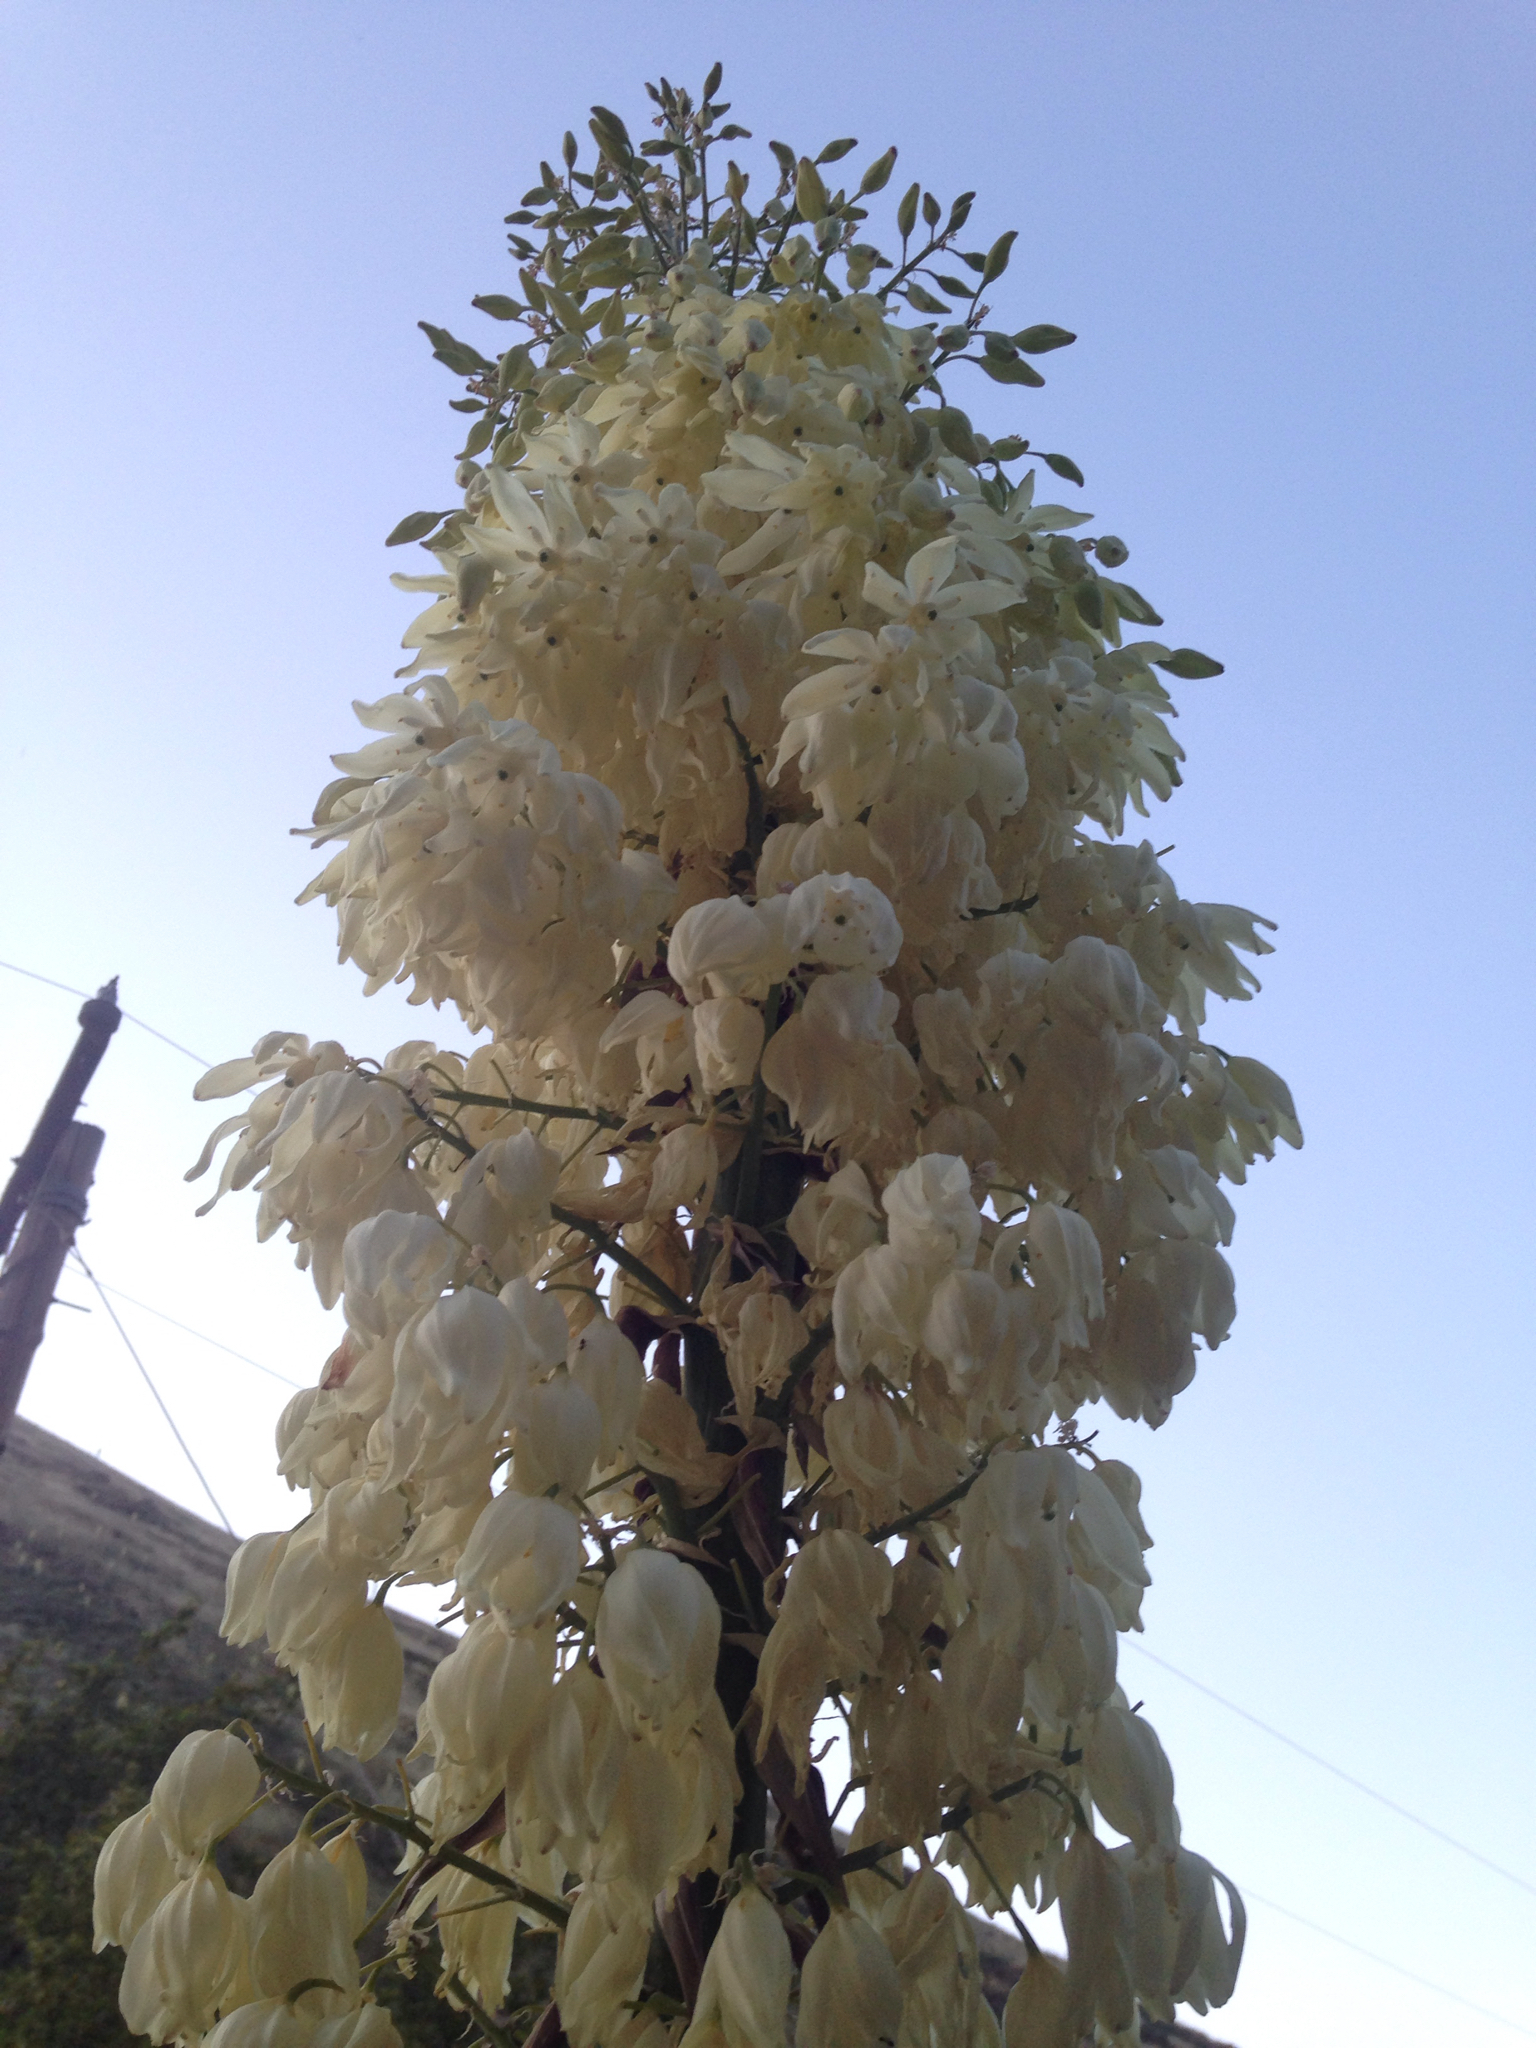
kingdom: Plantae
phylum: Tracheophyta
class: Liliopsida
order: Asparagales
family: Asparagaceae
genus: Hesperoyucca
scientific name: Hesperoyucca whipplei
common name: Our lord's-candle
